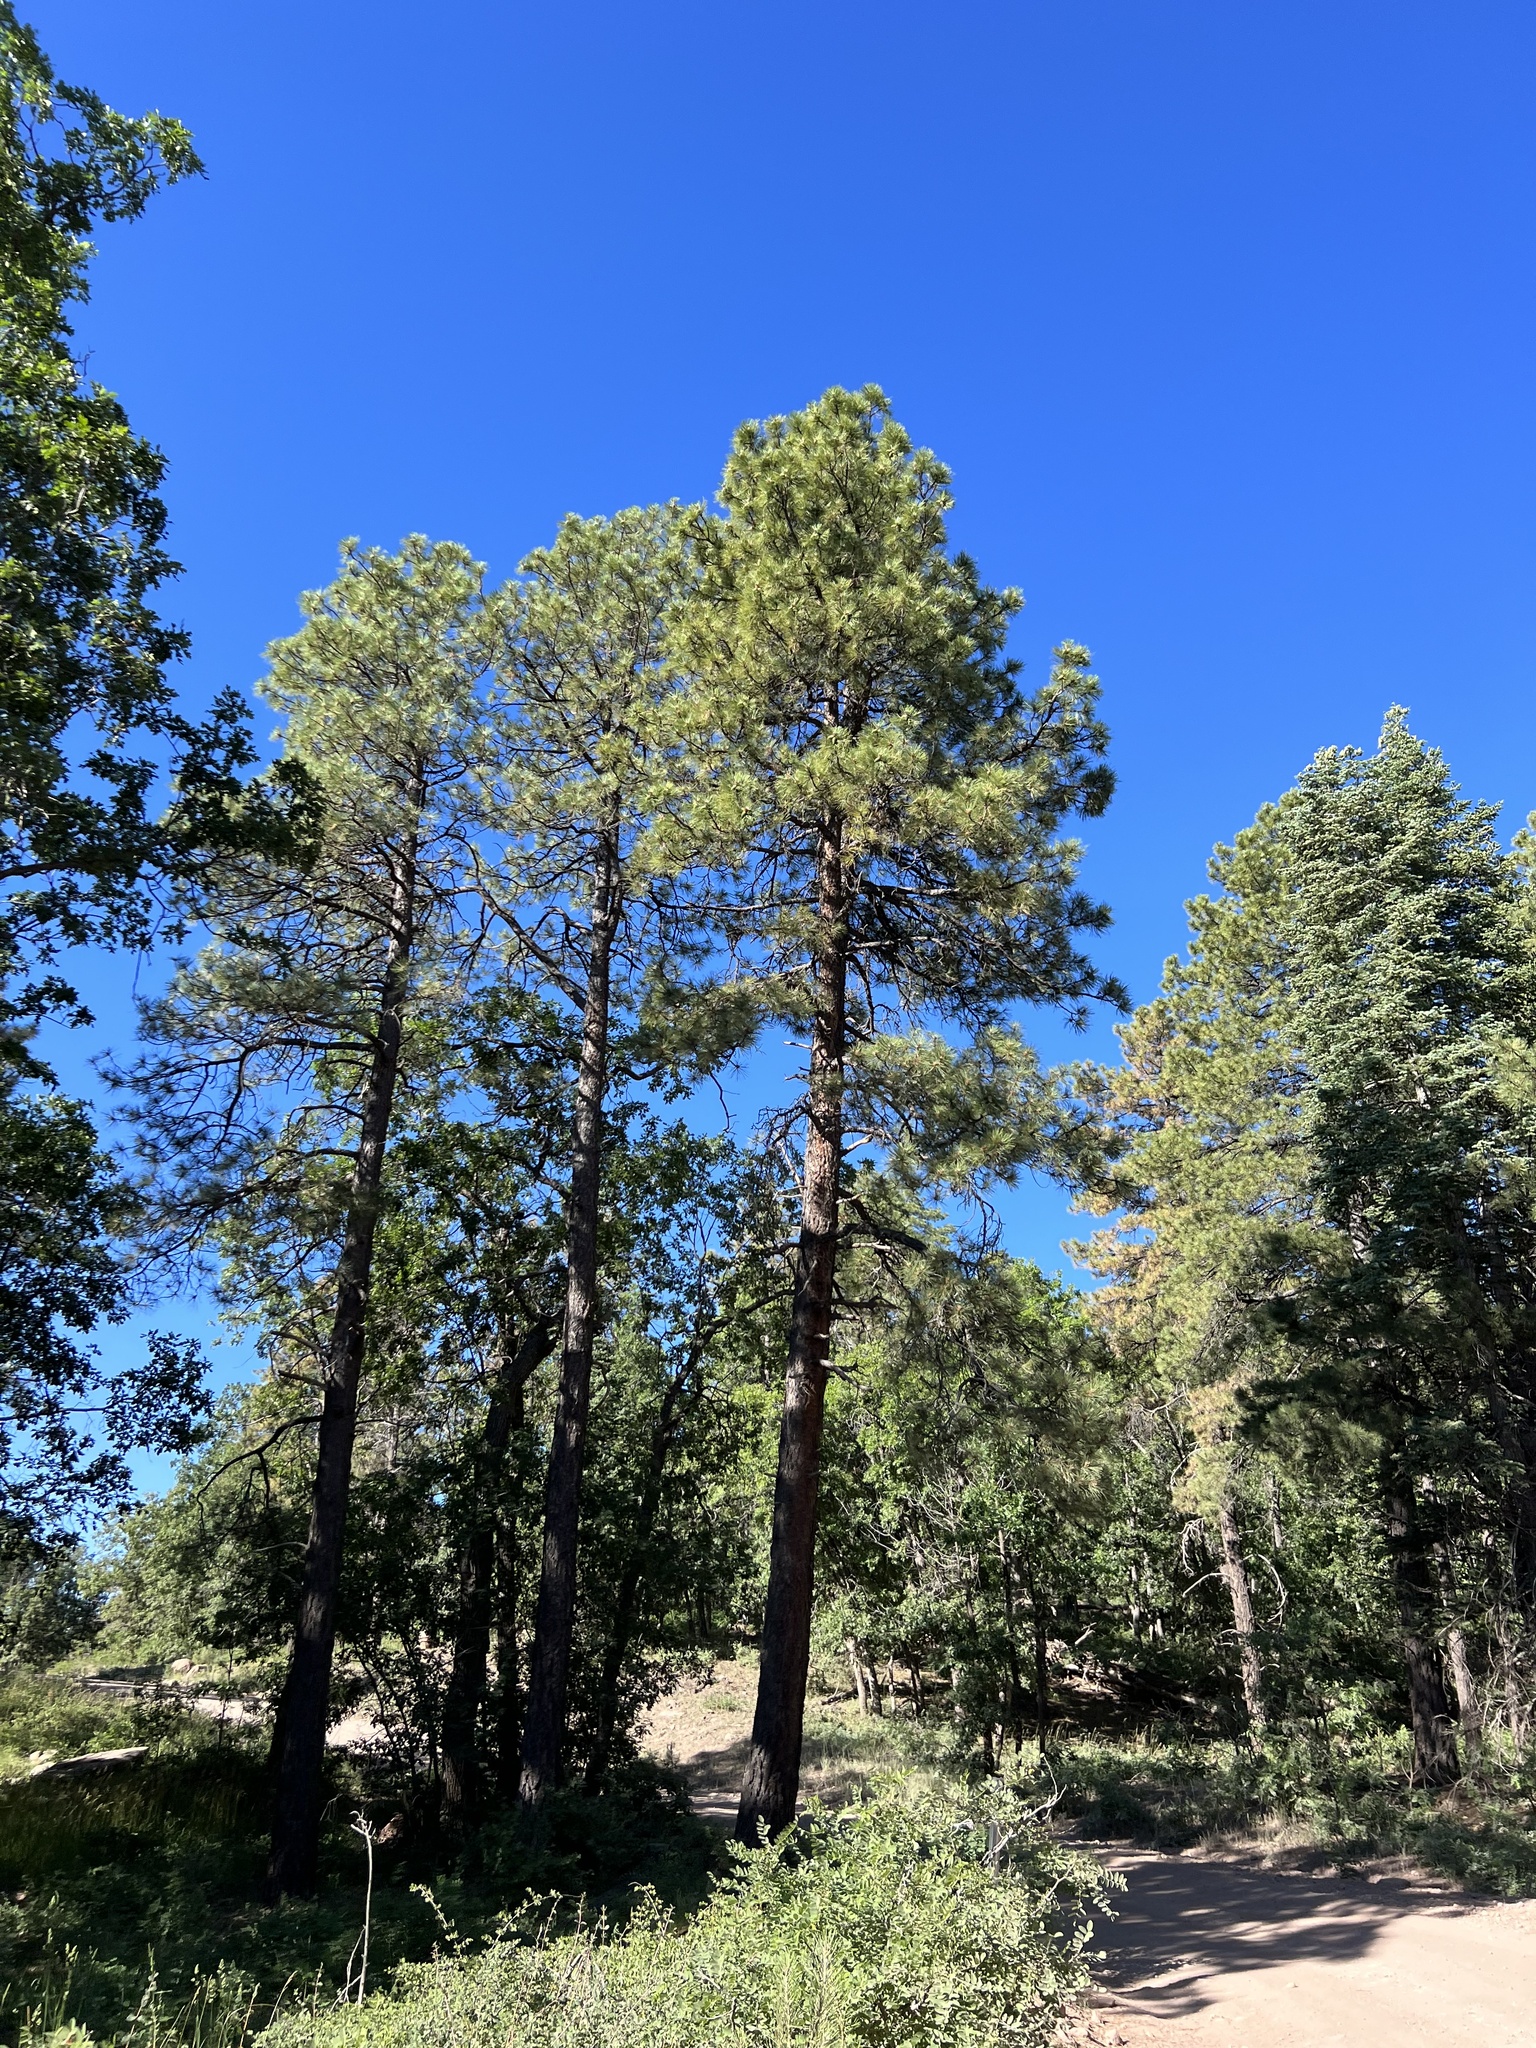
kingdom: Plantae
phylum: Tracheophyta
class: Pinopsida
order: Pinales
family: Pinaceae
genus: Pinus
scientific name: Pinus ponderosa
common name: Western yellow-pine
